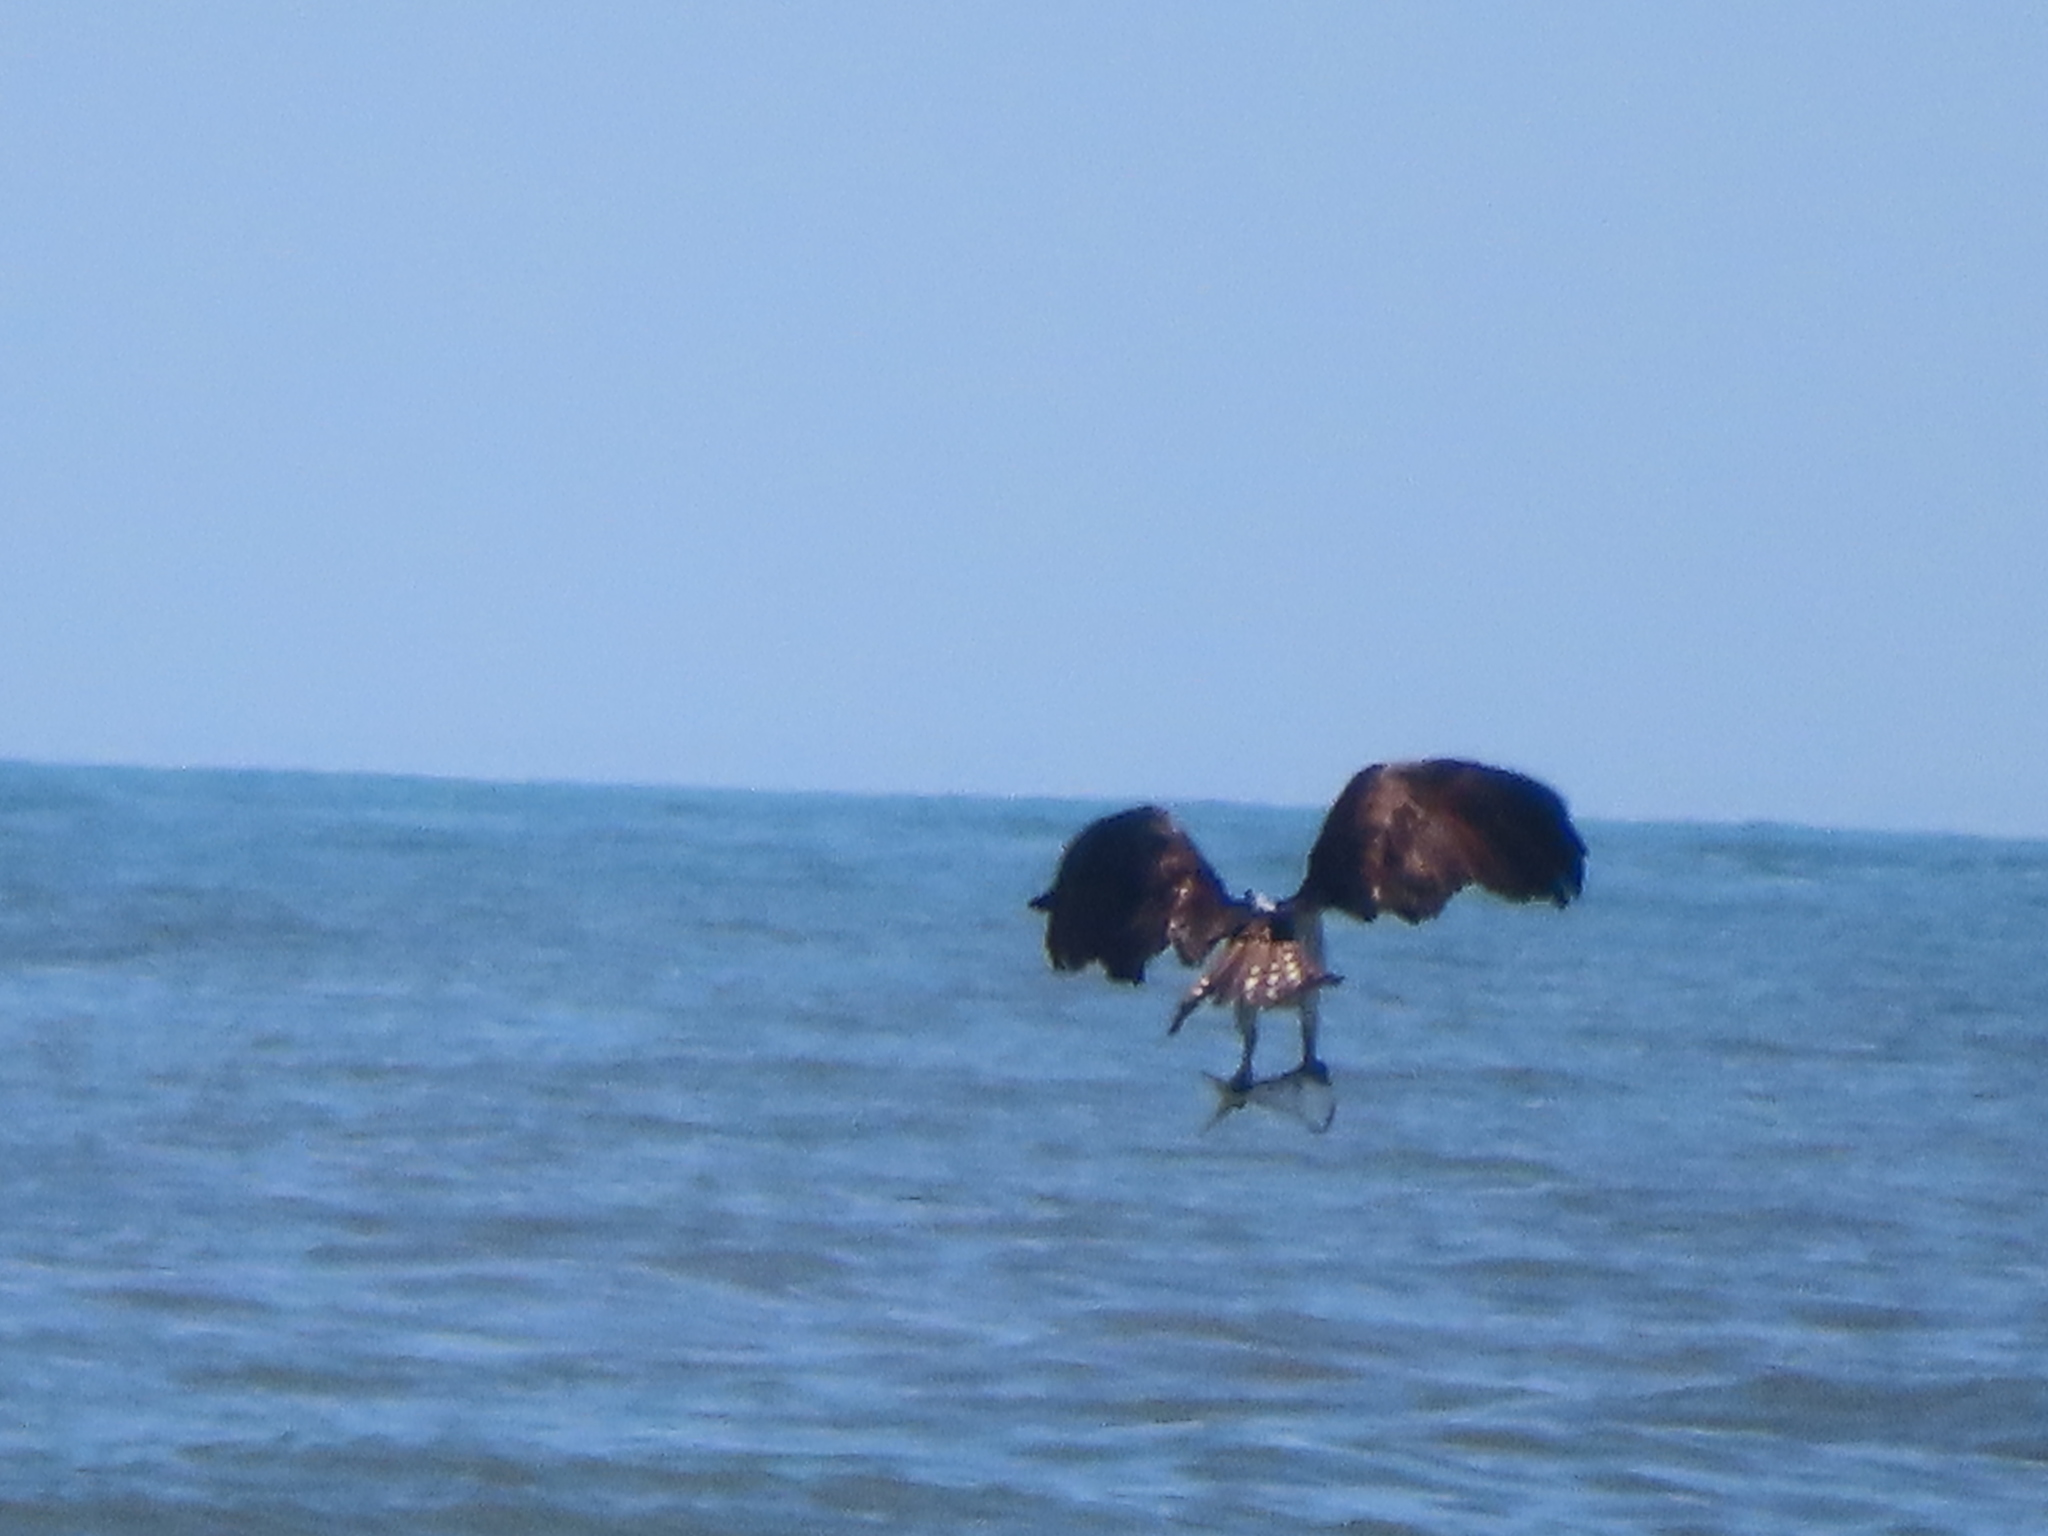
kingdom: Animalia
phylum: Chordata
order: Clupeiformes
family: Clupeidae
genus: Brevoortia
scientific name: Brevoortia tyrannus
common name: Atlantic menhaden
